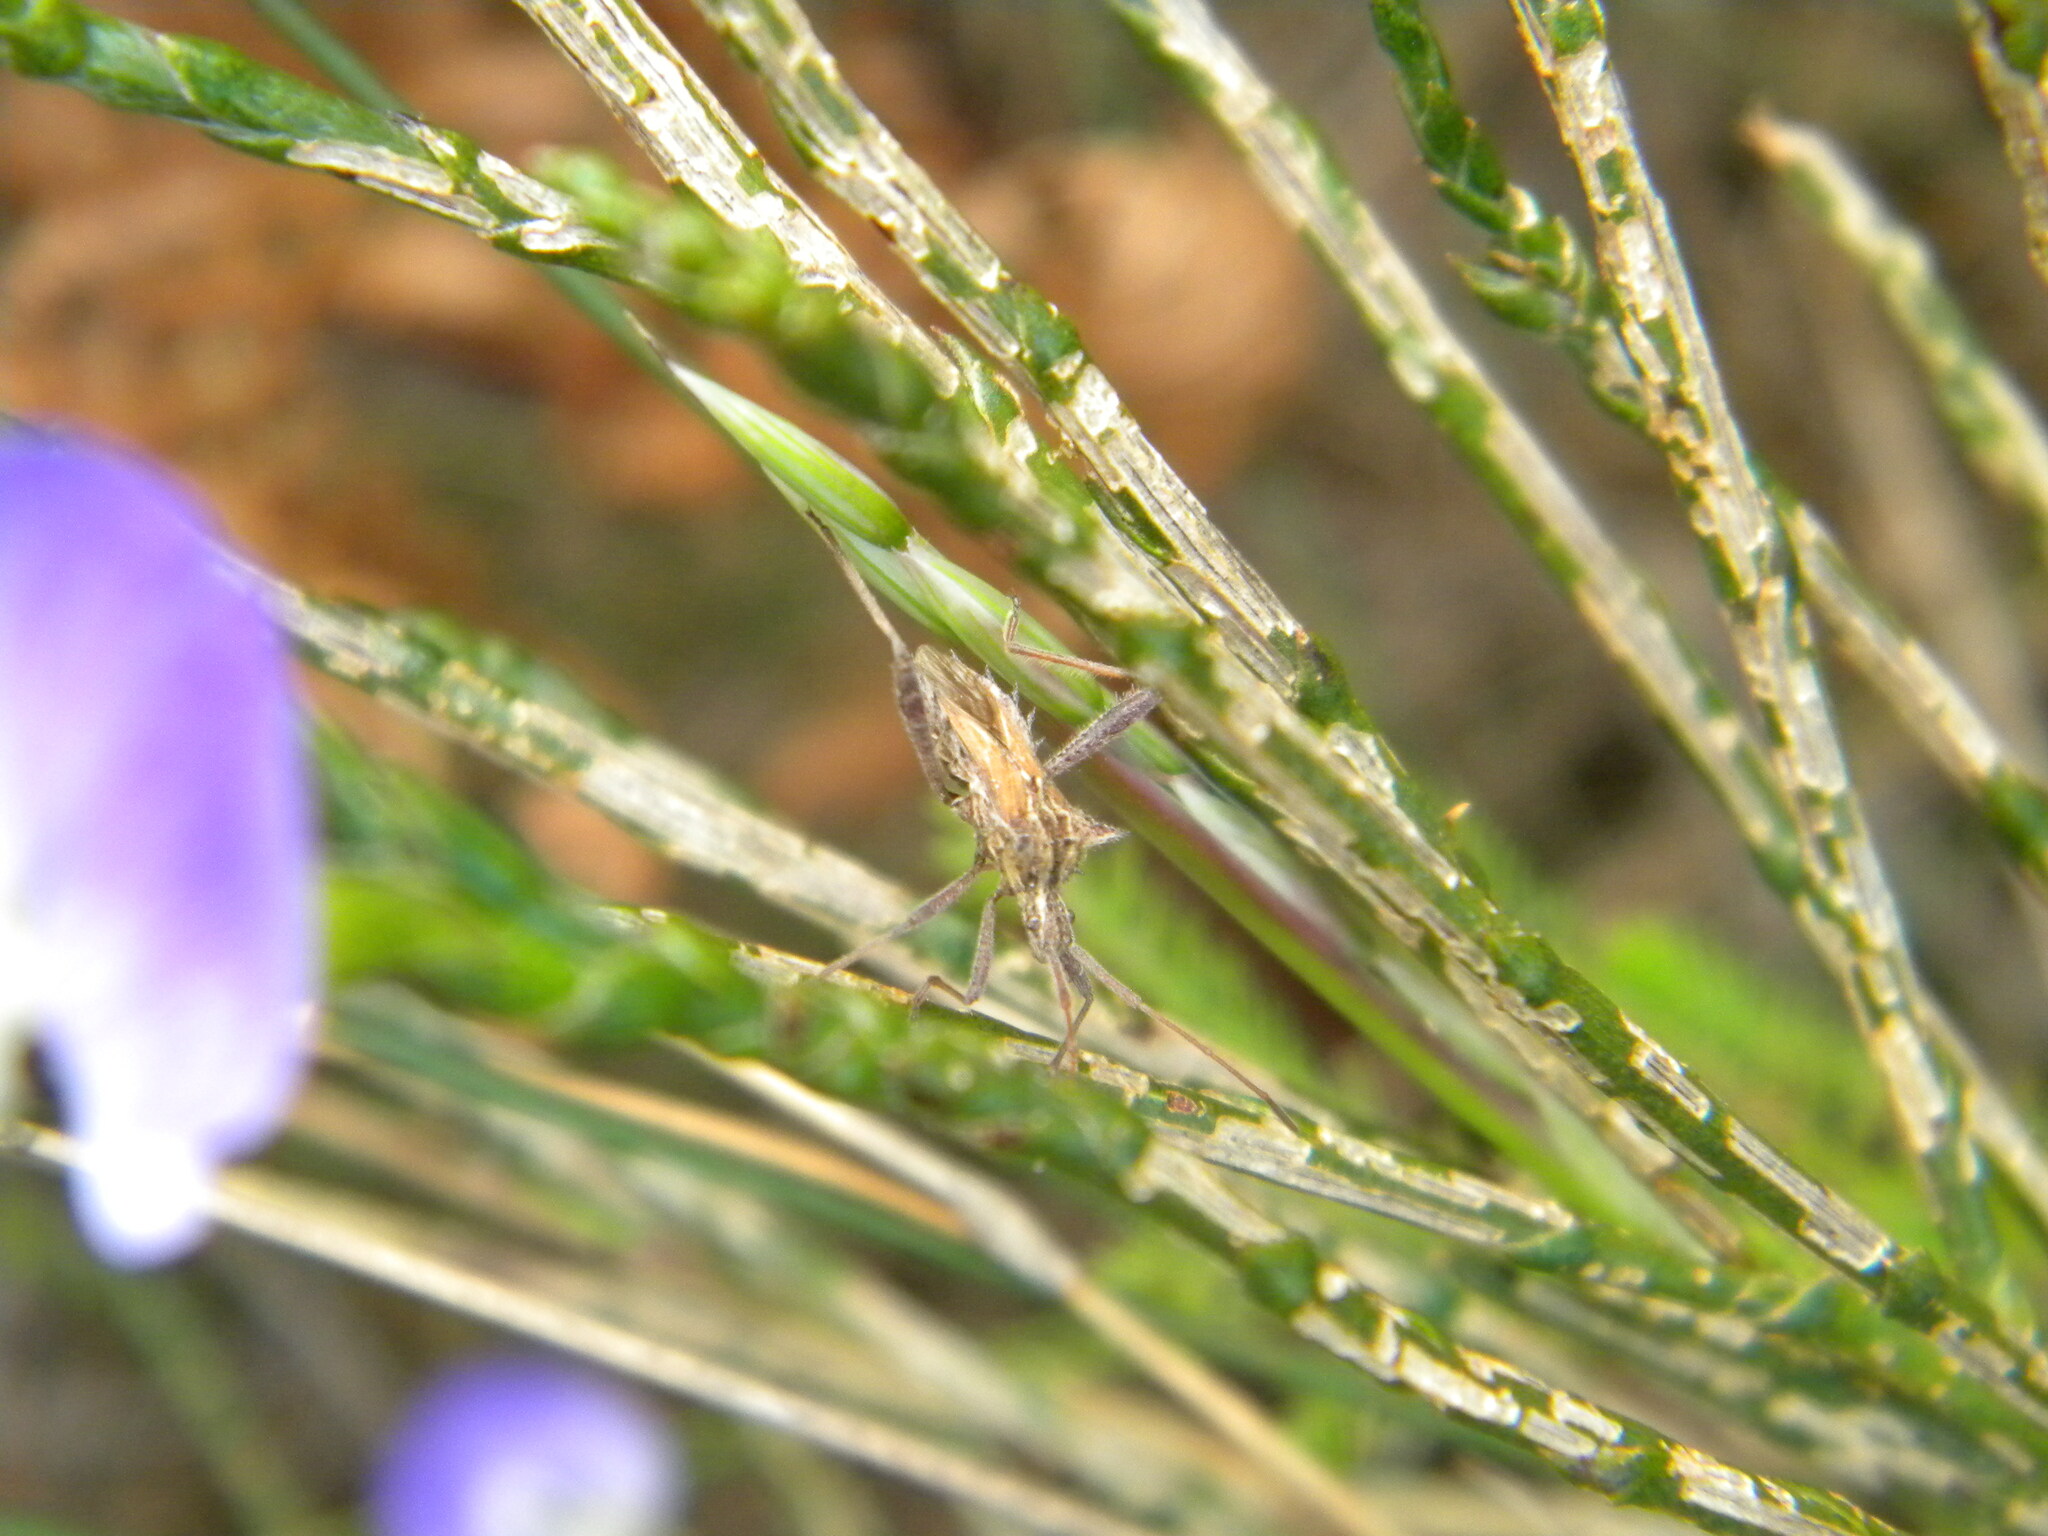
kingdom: Animalia
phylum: Arthropoda
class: Insecta
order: Hemiptera
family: Coreidae
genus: Clavigralla
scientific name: Clavigralla horrida
